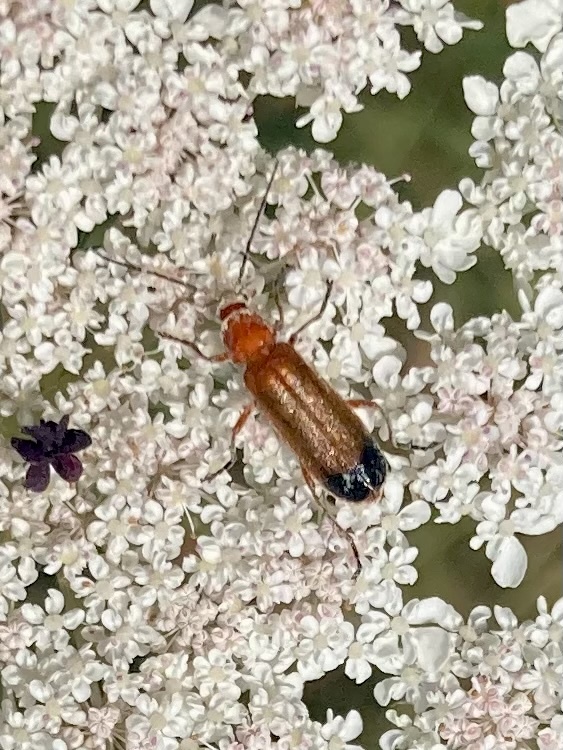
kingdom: Animalia
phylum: Arthropoda
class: Insecta
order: Coleoptera
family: Cantharidae
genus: Rhagonycha
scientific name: Rhagonycha fulva
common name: Common red soldier beetle
